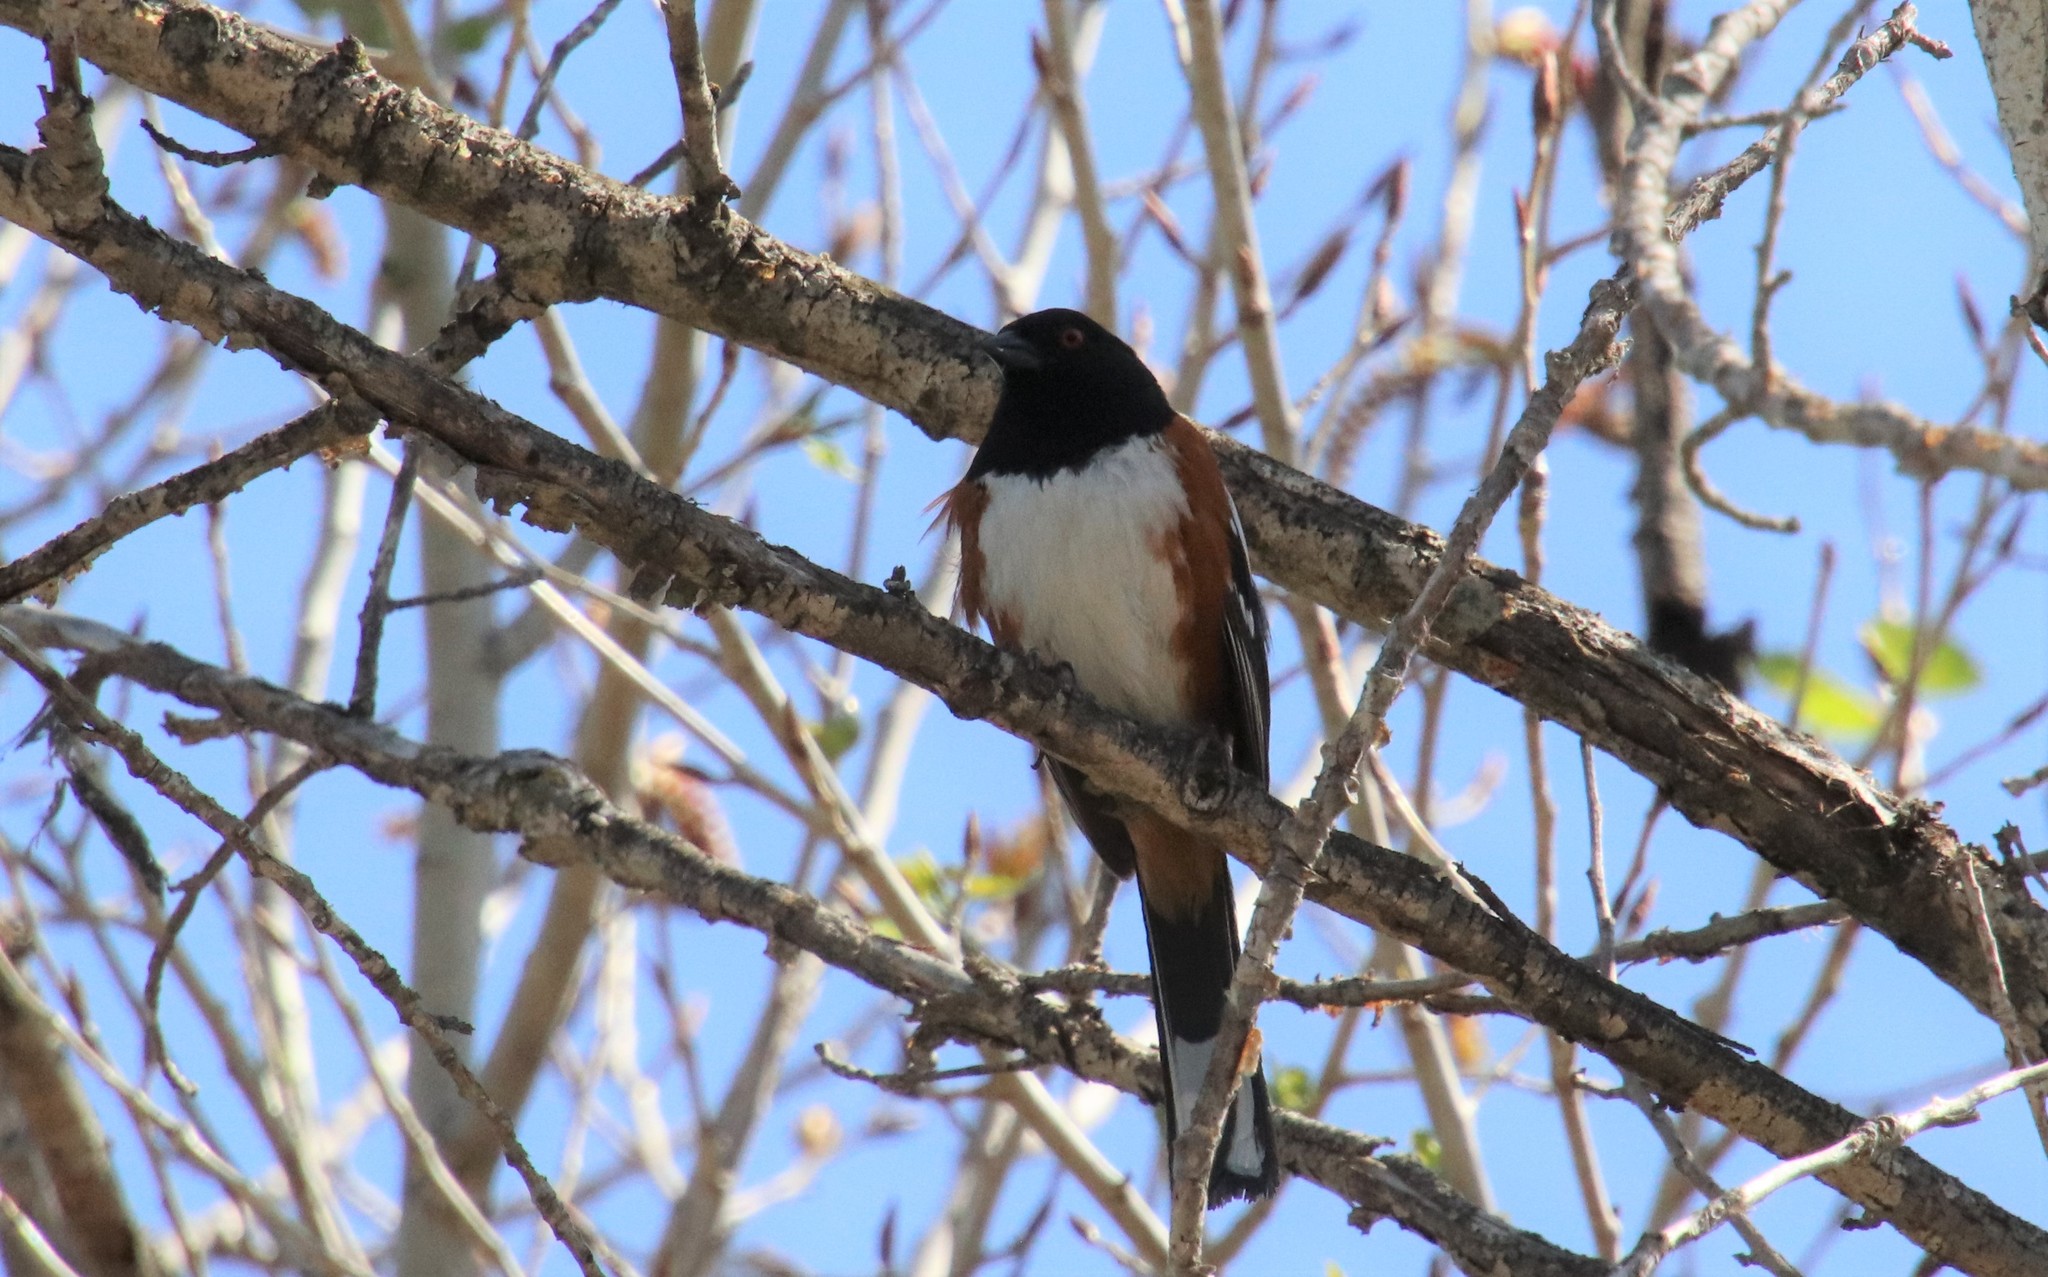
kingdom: Animalia
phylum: Chordata
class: Aves
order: Passeriformes
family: Passerellidae
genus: Pipilo
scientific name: Pipilo maculatus
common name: Spotted towhee
